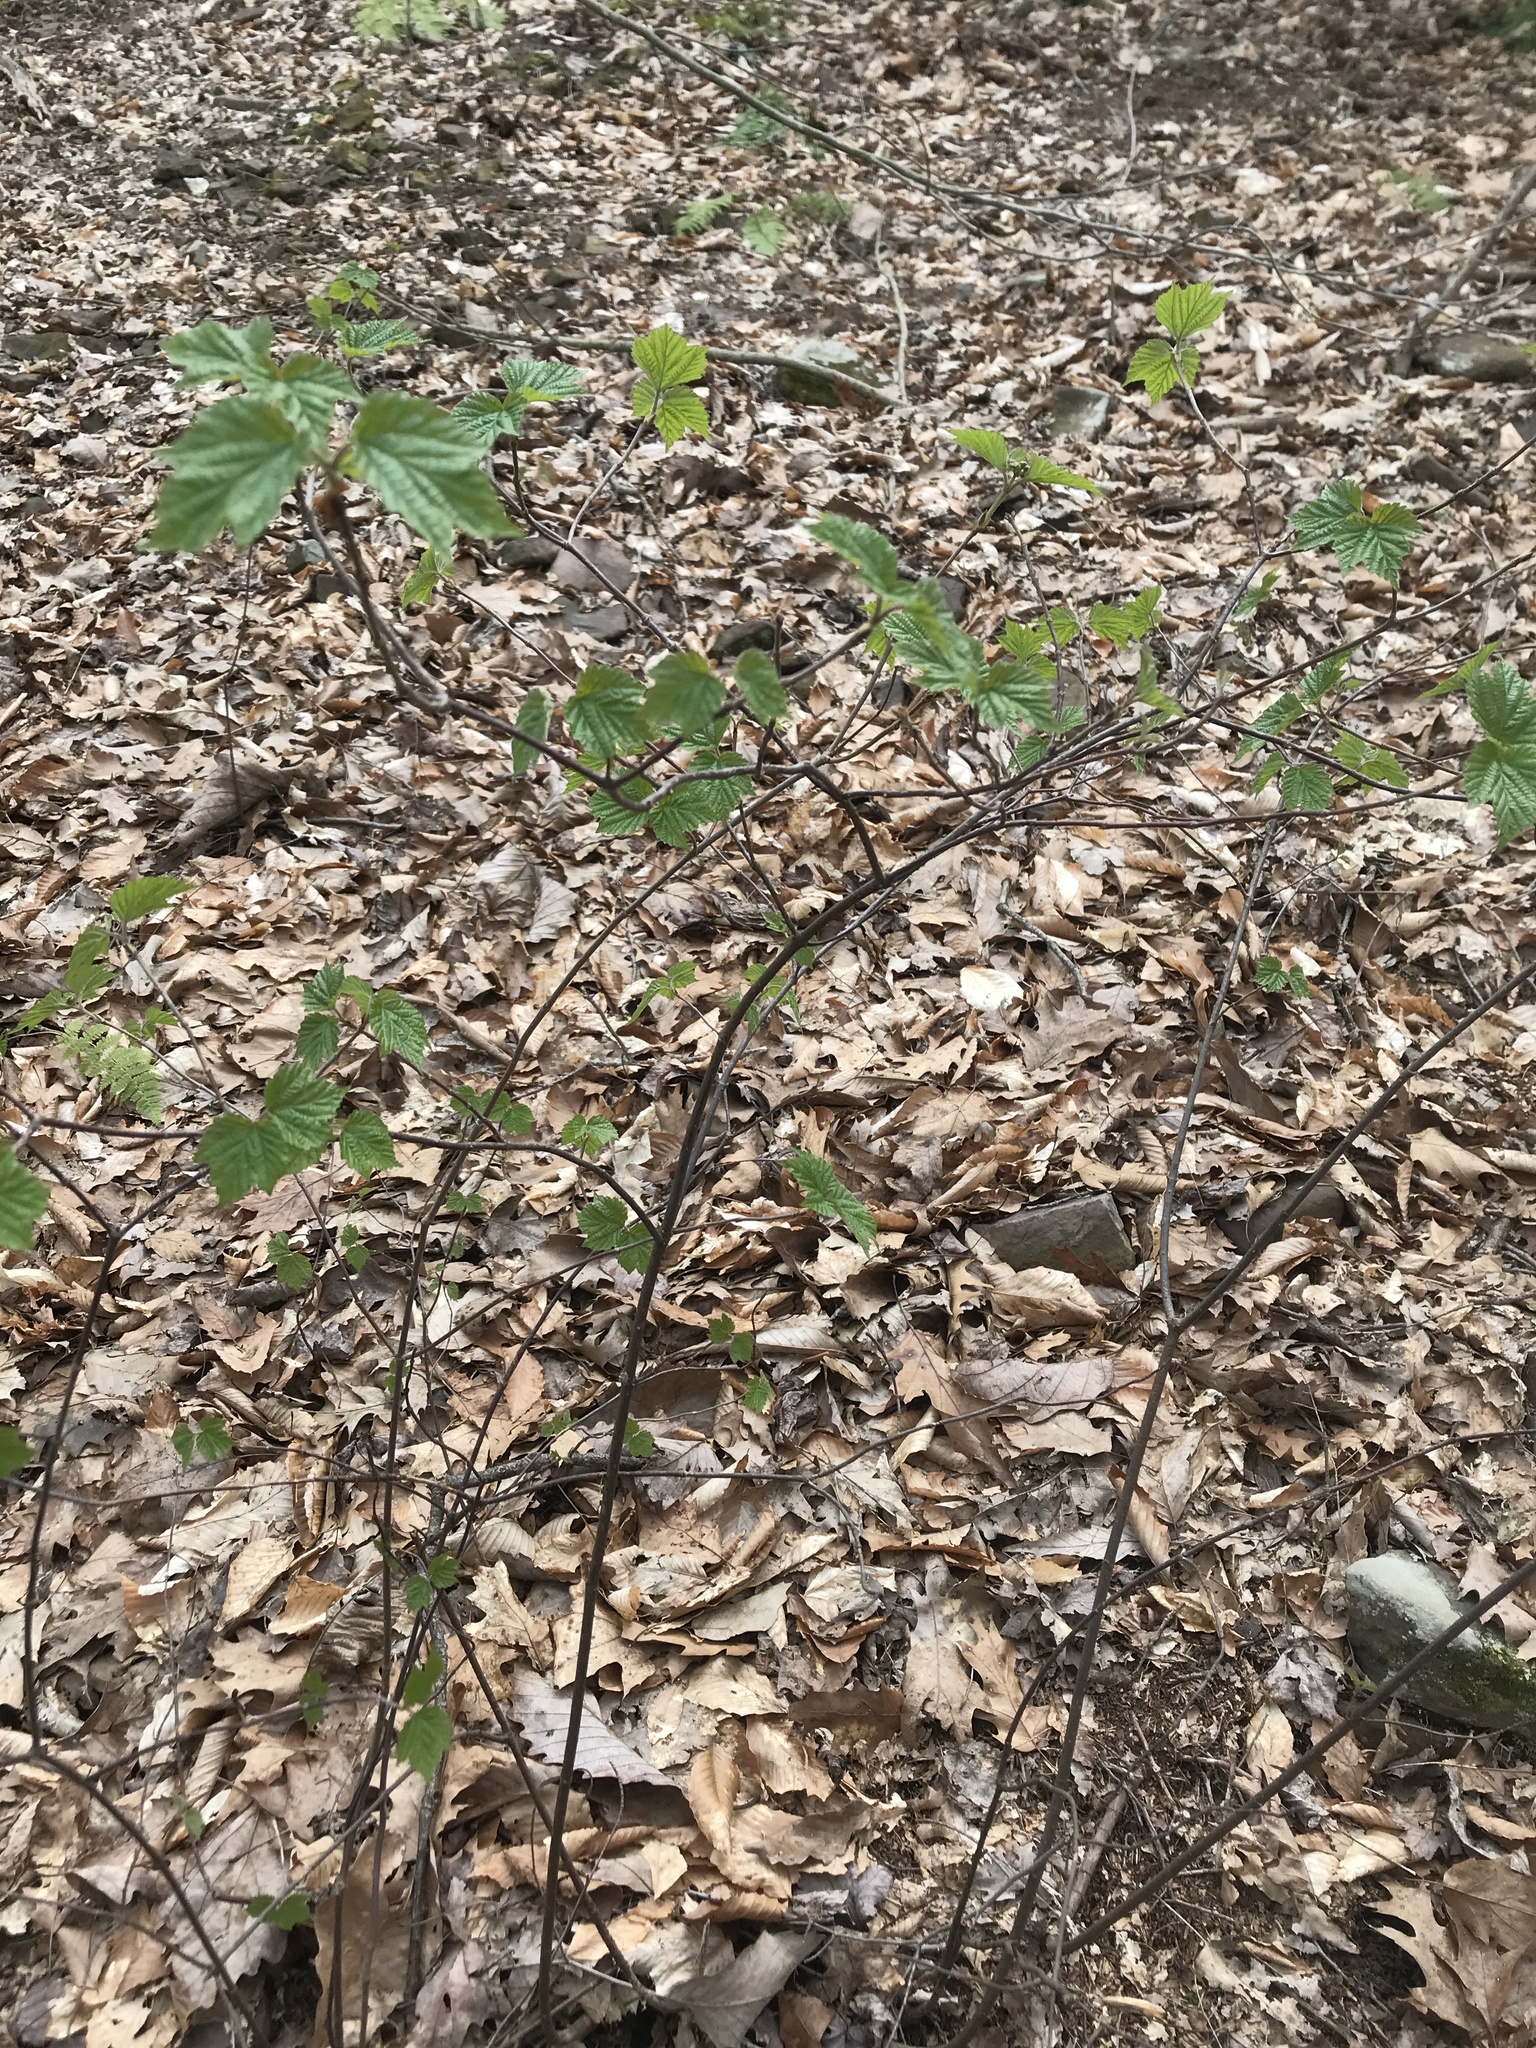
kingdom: Plantae
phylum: Tracheophyta
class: Magnoliopsida
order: Dipsacales
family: Viburnaceae
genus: Viburnum
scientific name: Viburnum acerifolium
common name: Dockmackie
